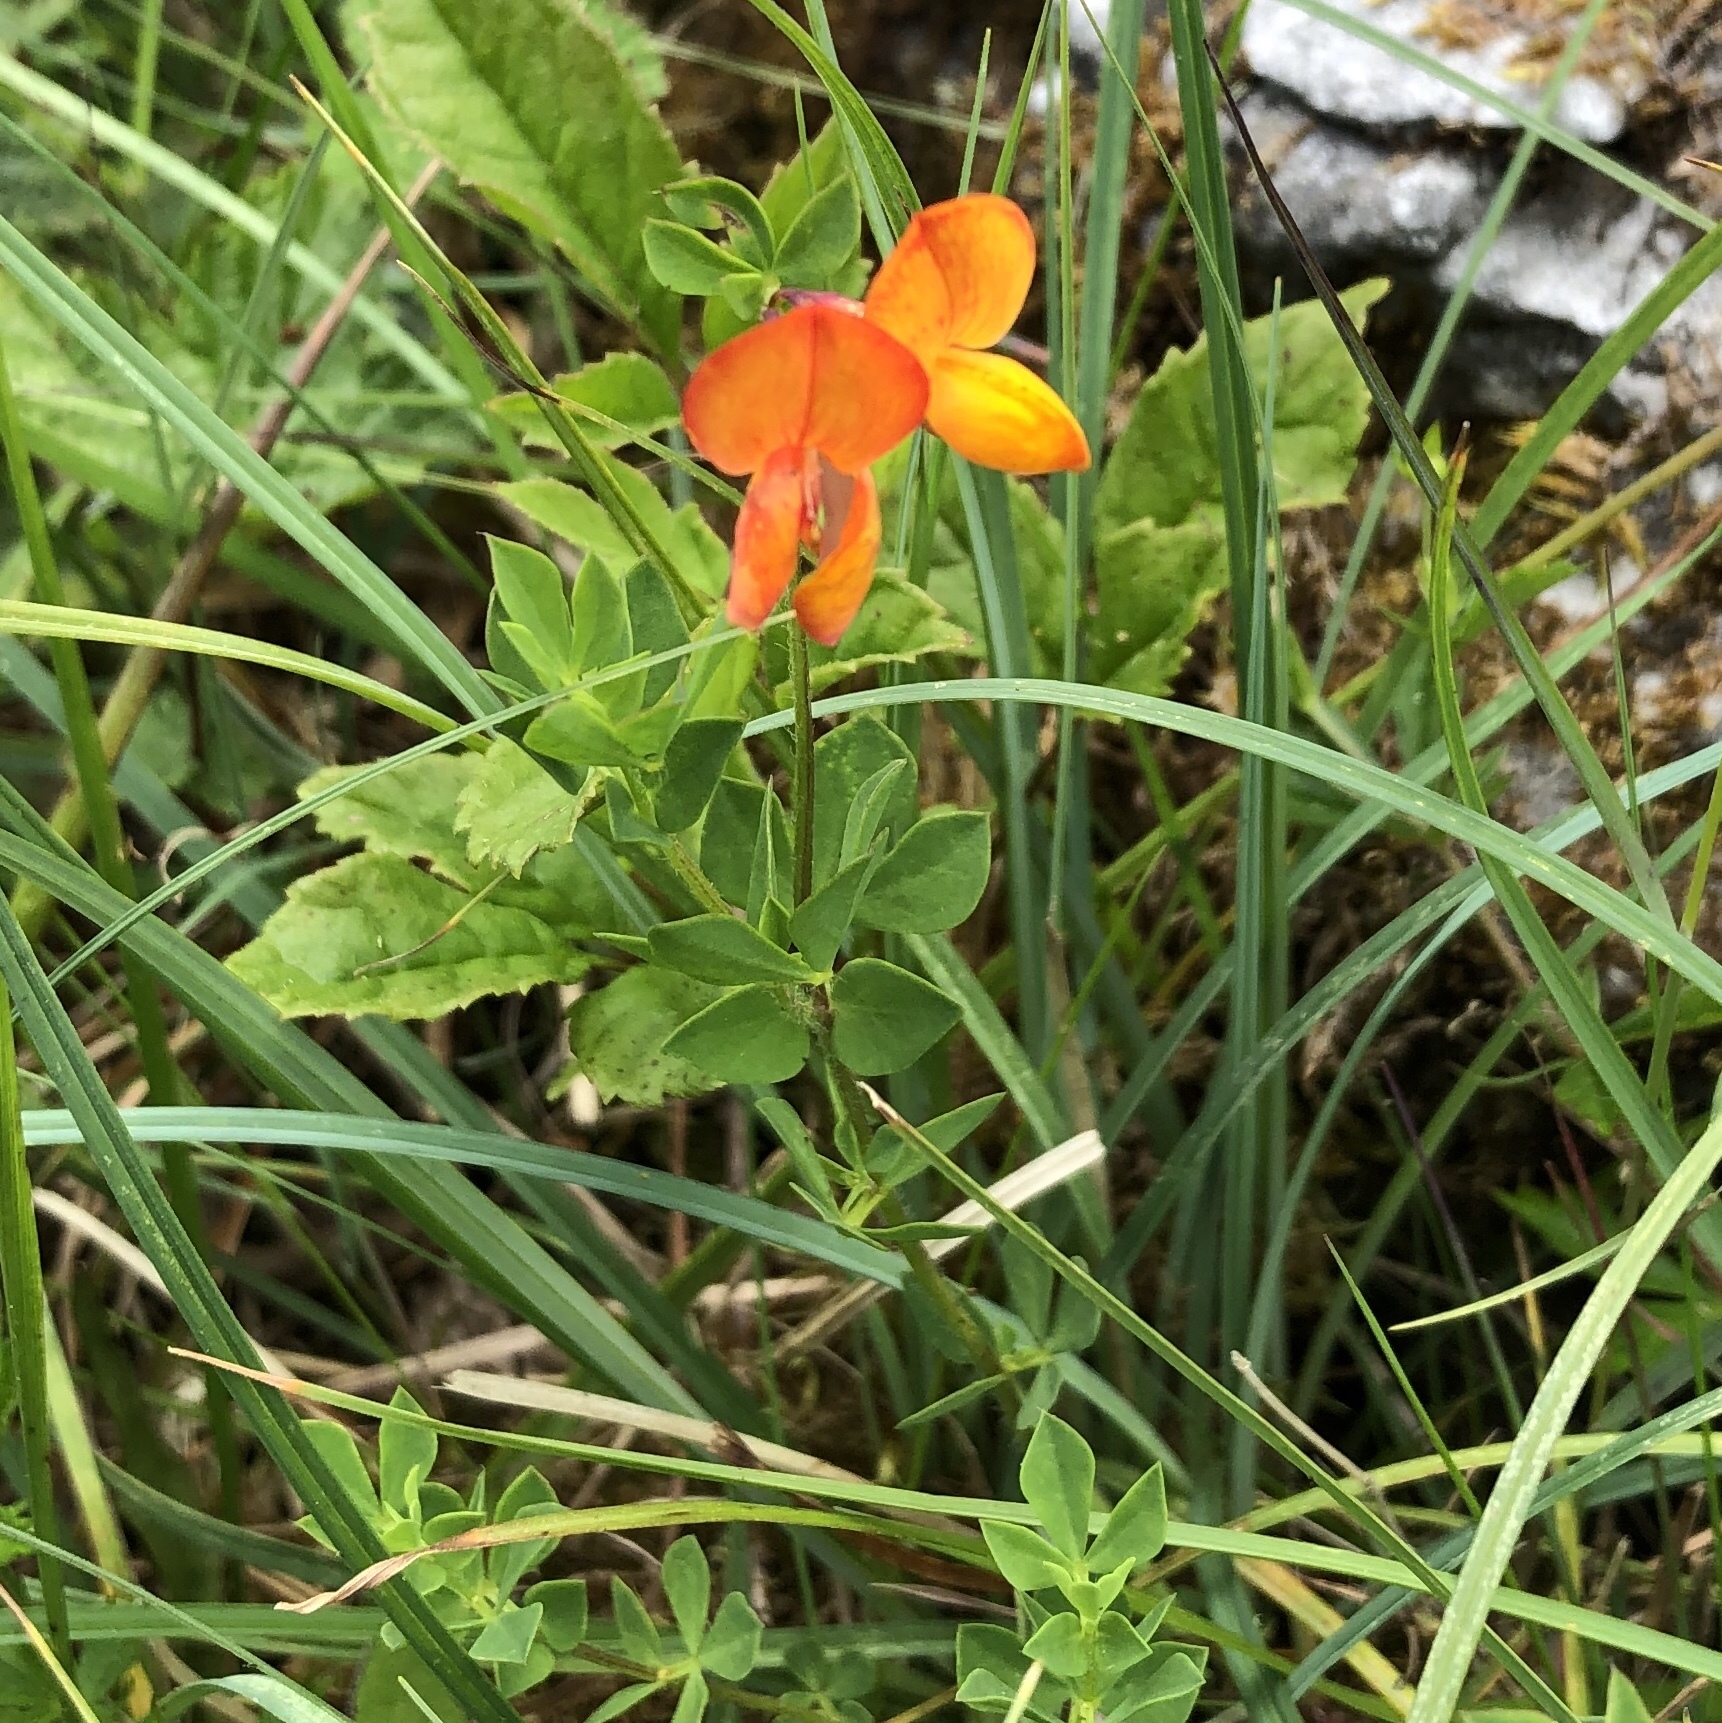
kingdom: Plantae
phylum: Tracheophyta
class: Magnoliopsida
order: Fabales
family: Fabaceae
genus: Lotus
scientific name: Lotus corniculatus
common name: Common bird's-foot-trefoil
